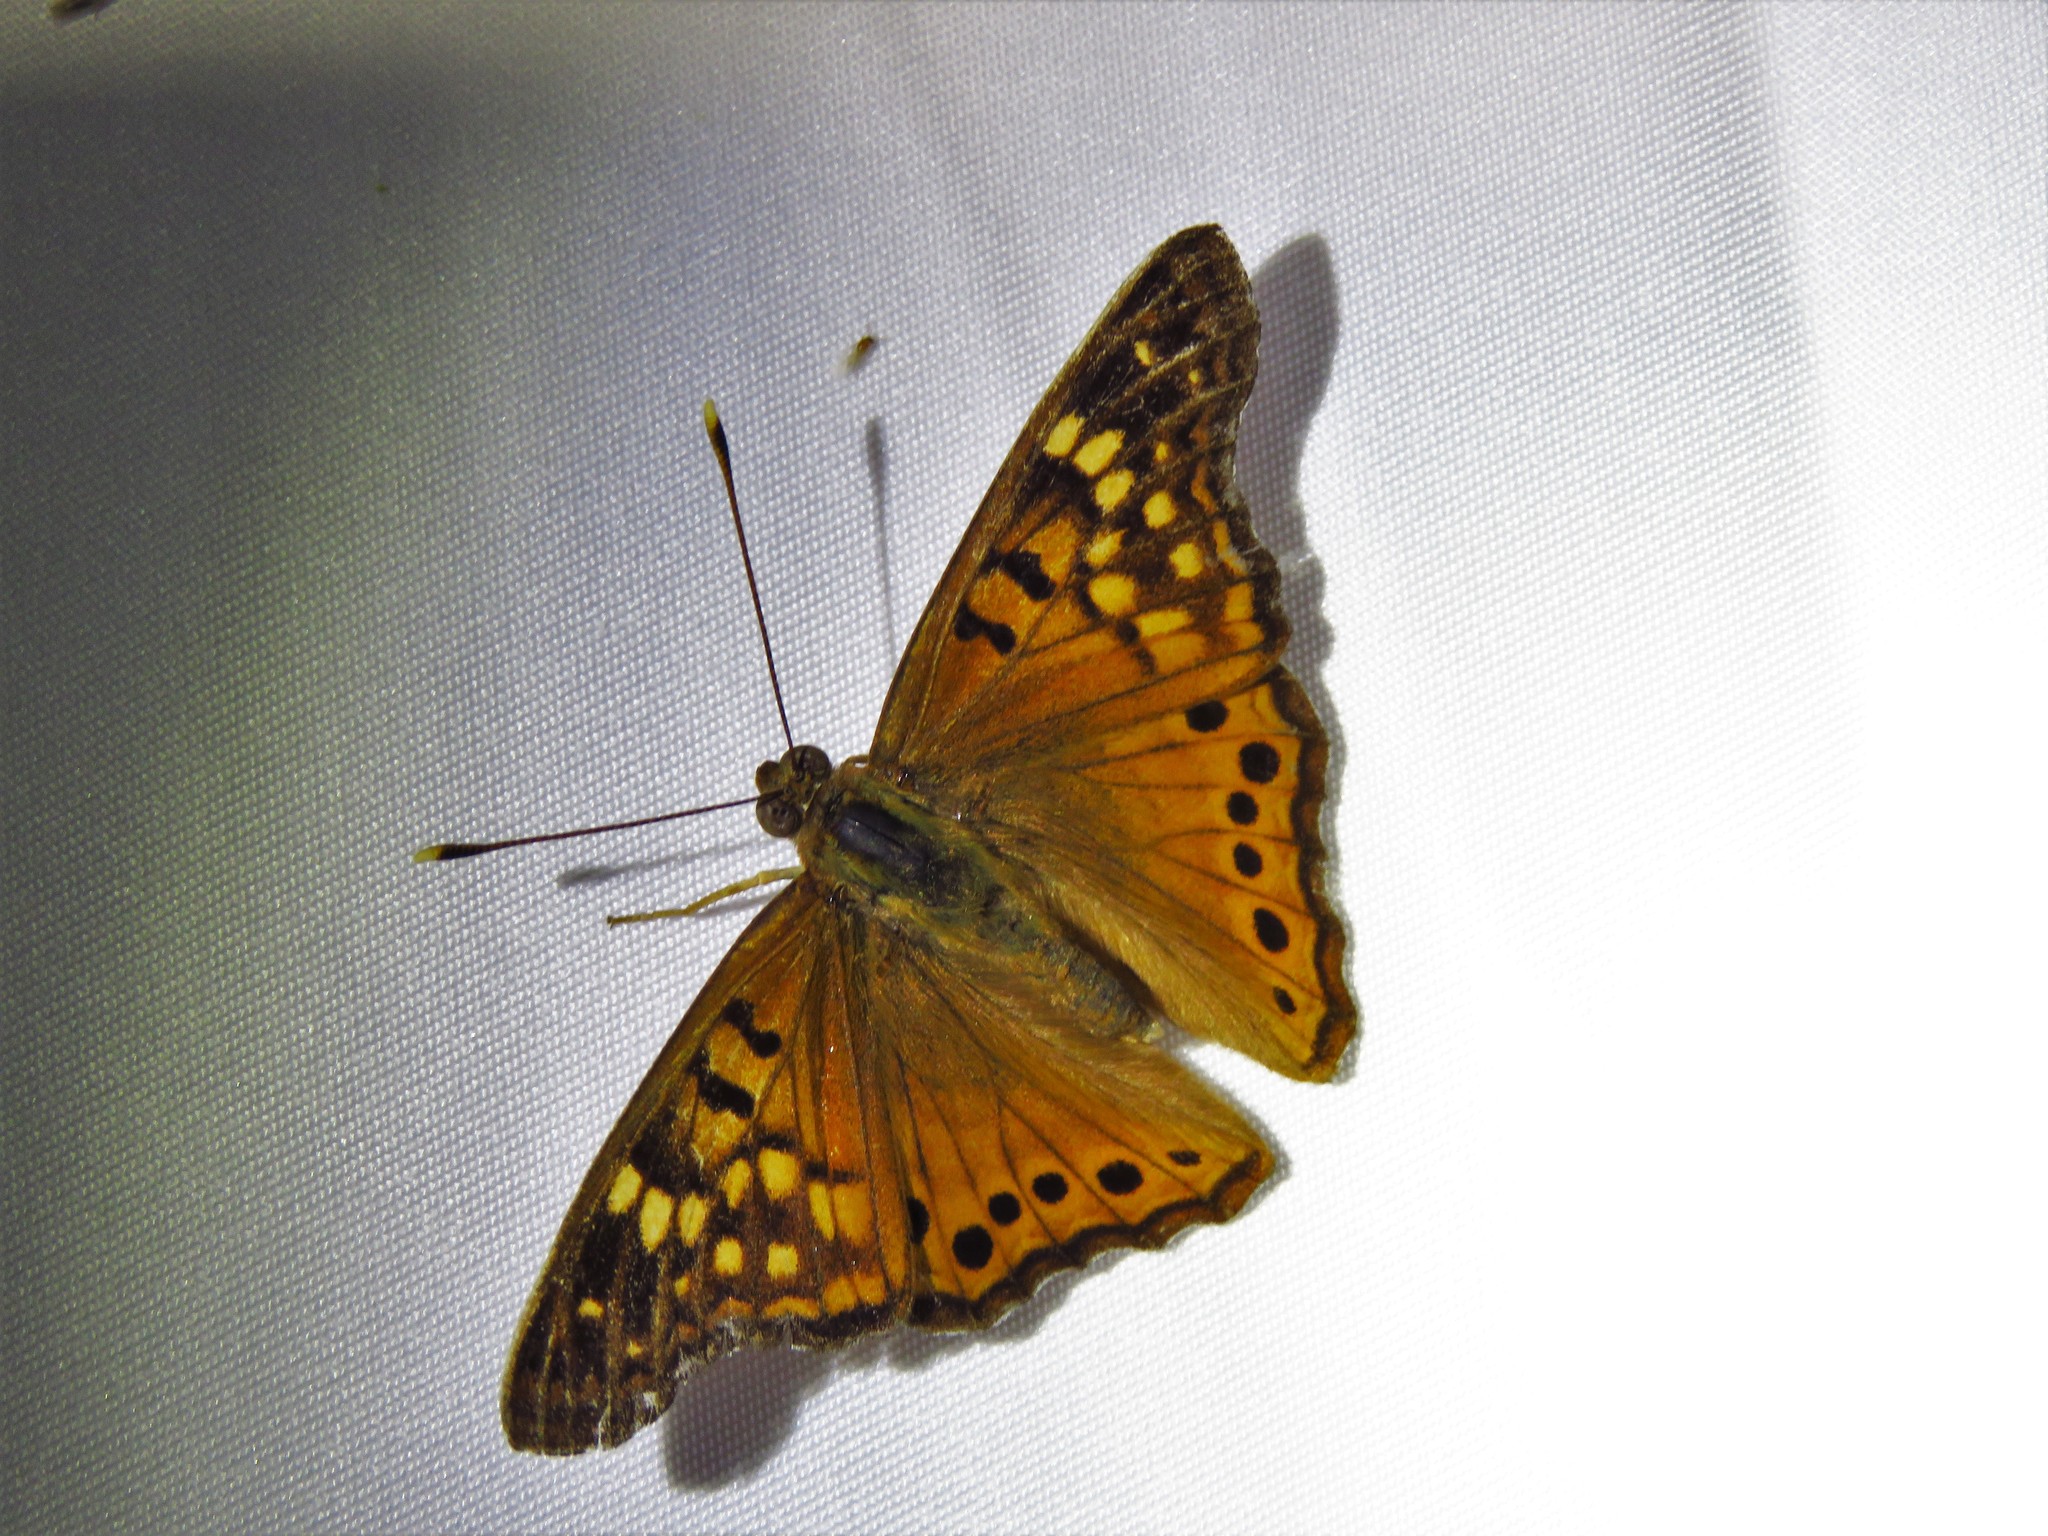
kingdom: Animalia
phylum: Arthropoda
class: Insecta
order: Lepidoptera
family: Nymphalidae
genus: Asterocampa
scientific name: Asterocampa clyton
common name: Tawny emperor
